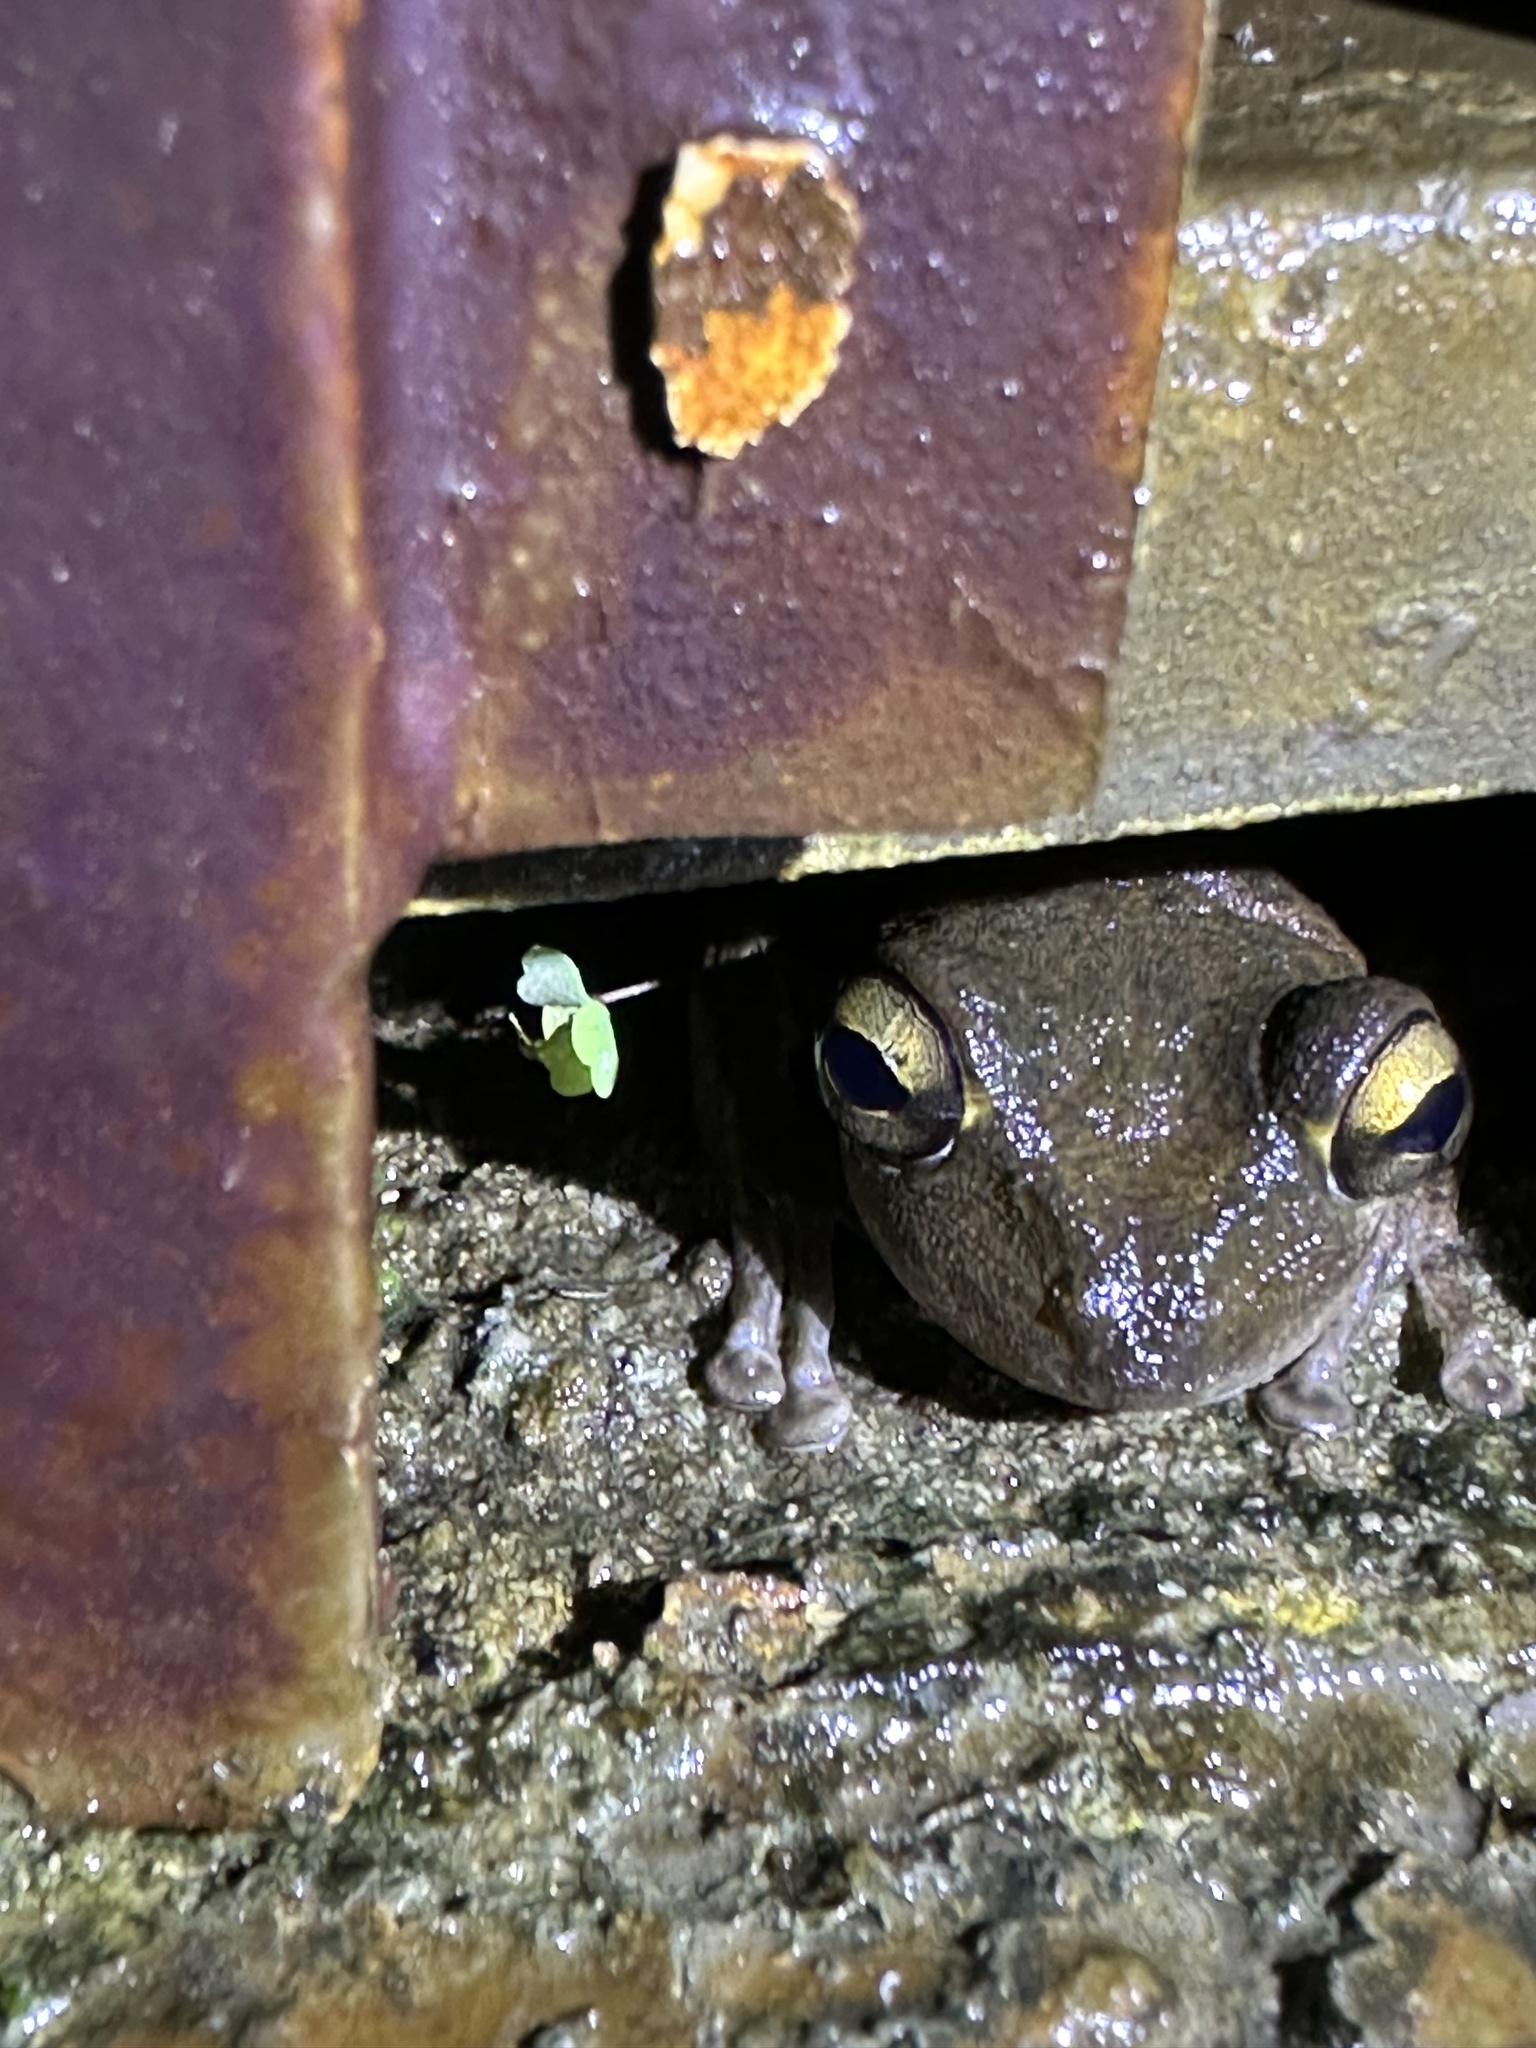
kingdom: Animalia
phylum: Chordata
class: Amphibia
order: Anura
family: Hylidae
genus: Osteopilus
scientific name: Osteopilus septentrionalis
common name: Cuban treefrog
